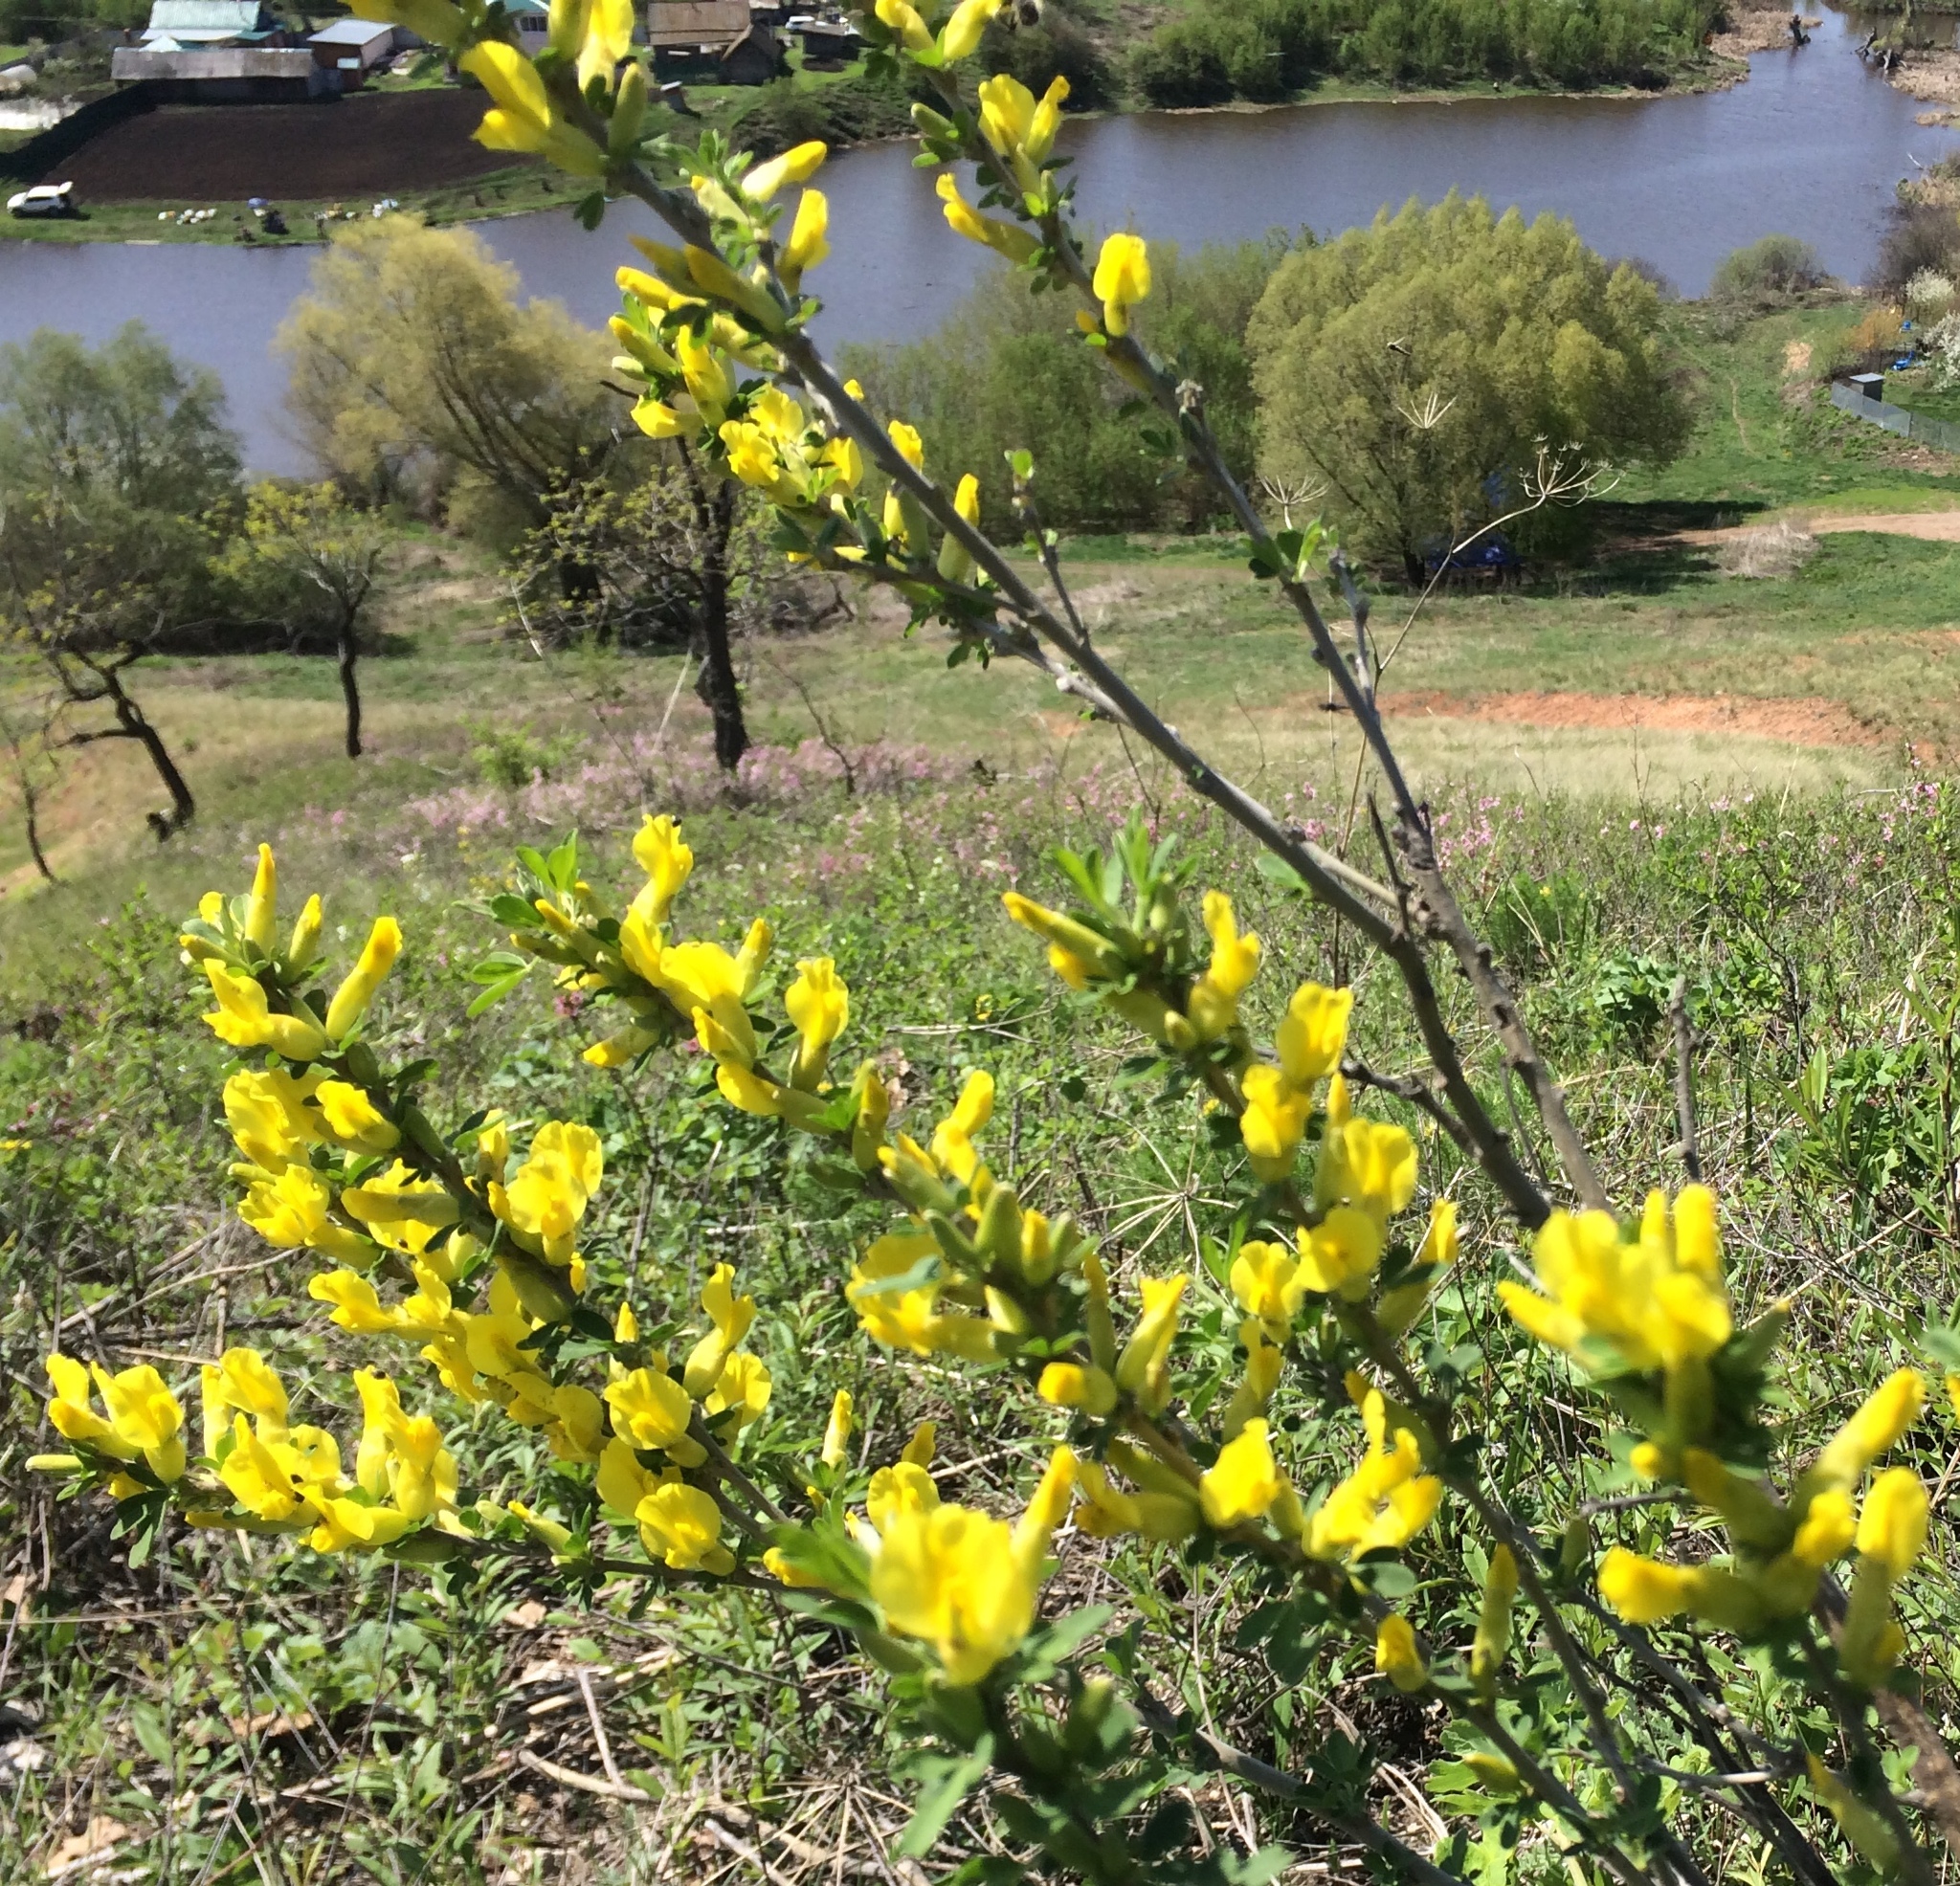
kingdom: Plantae
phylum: Tracheophyta
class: Magnoliopsida
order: Fabales
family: Fabaceae
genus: Chamaecytisus
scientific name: Chamaecytisus ruthenicus
